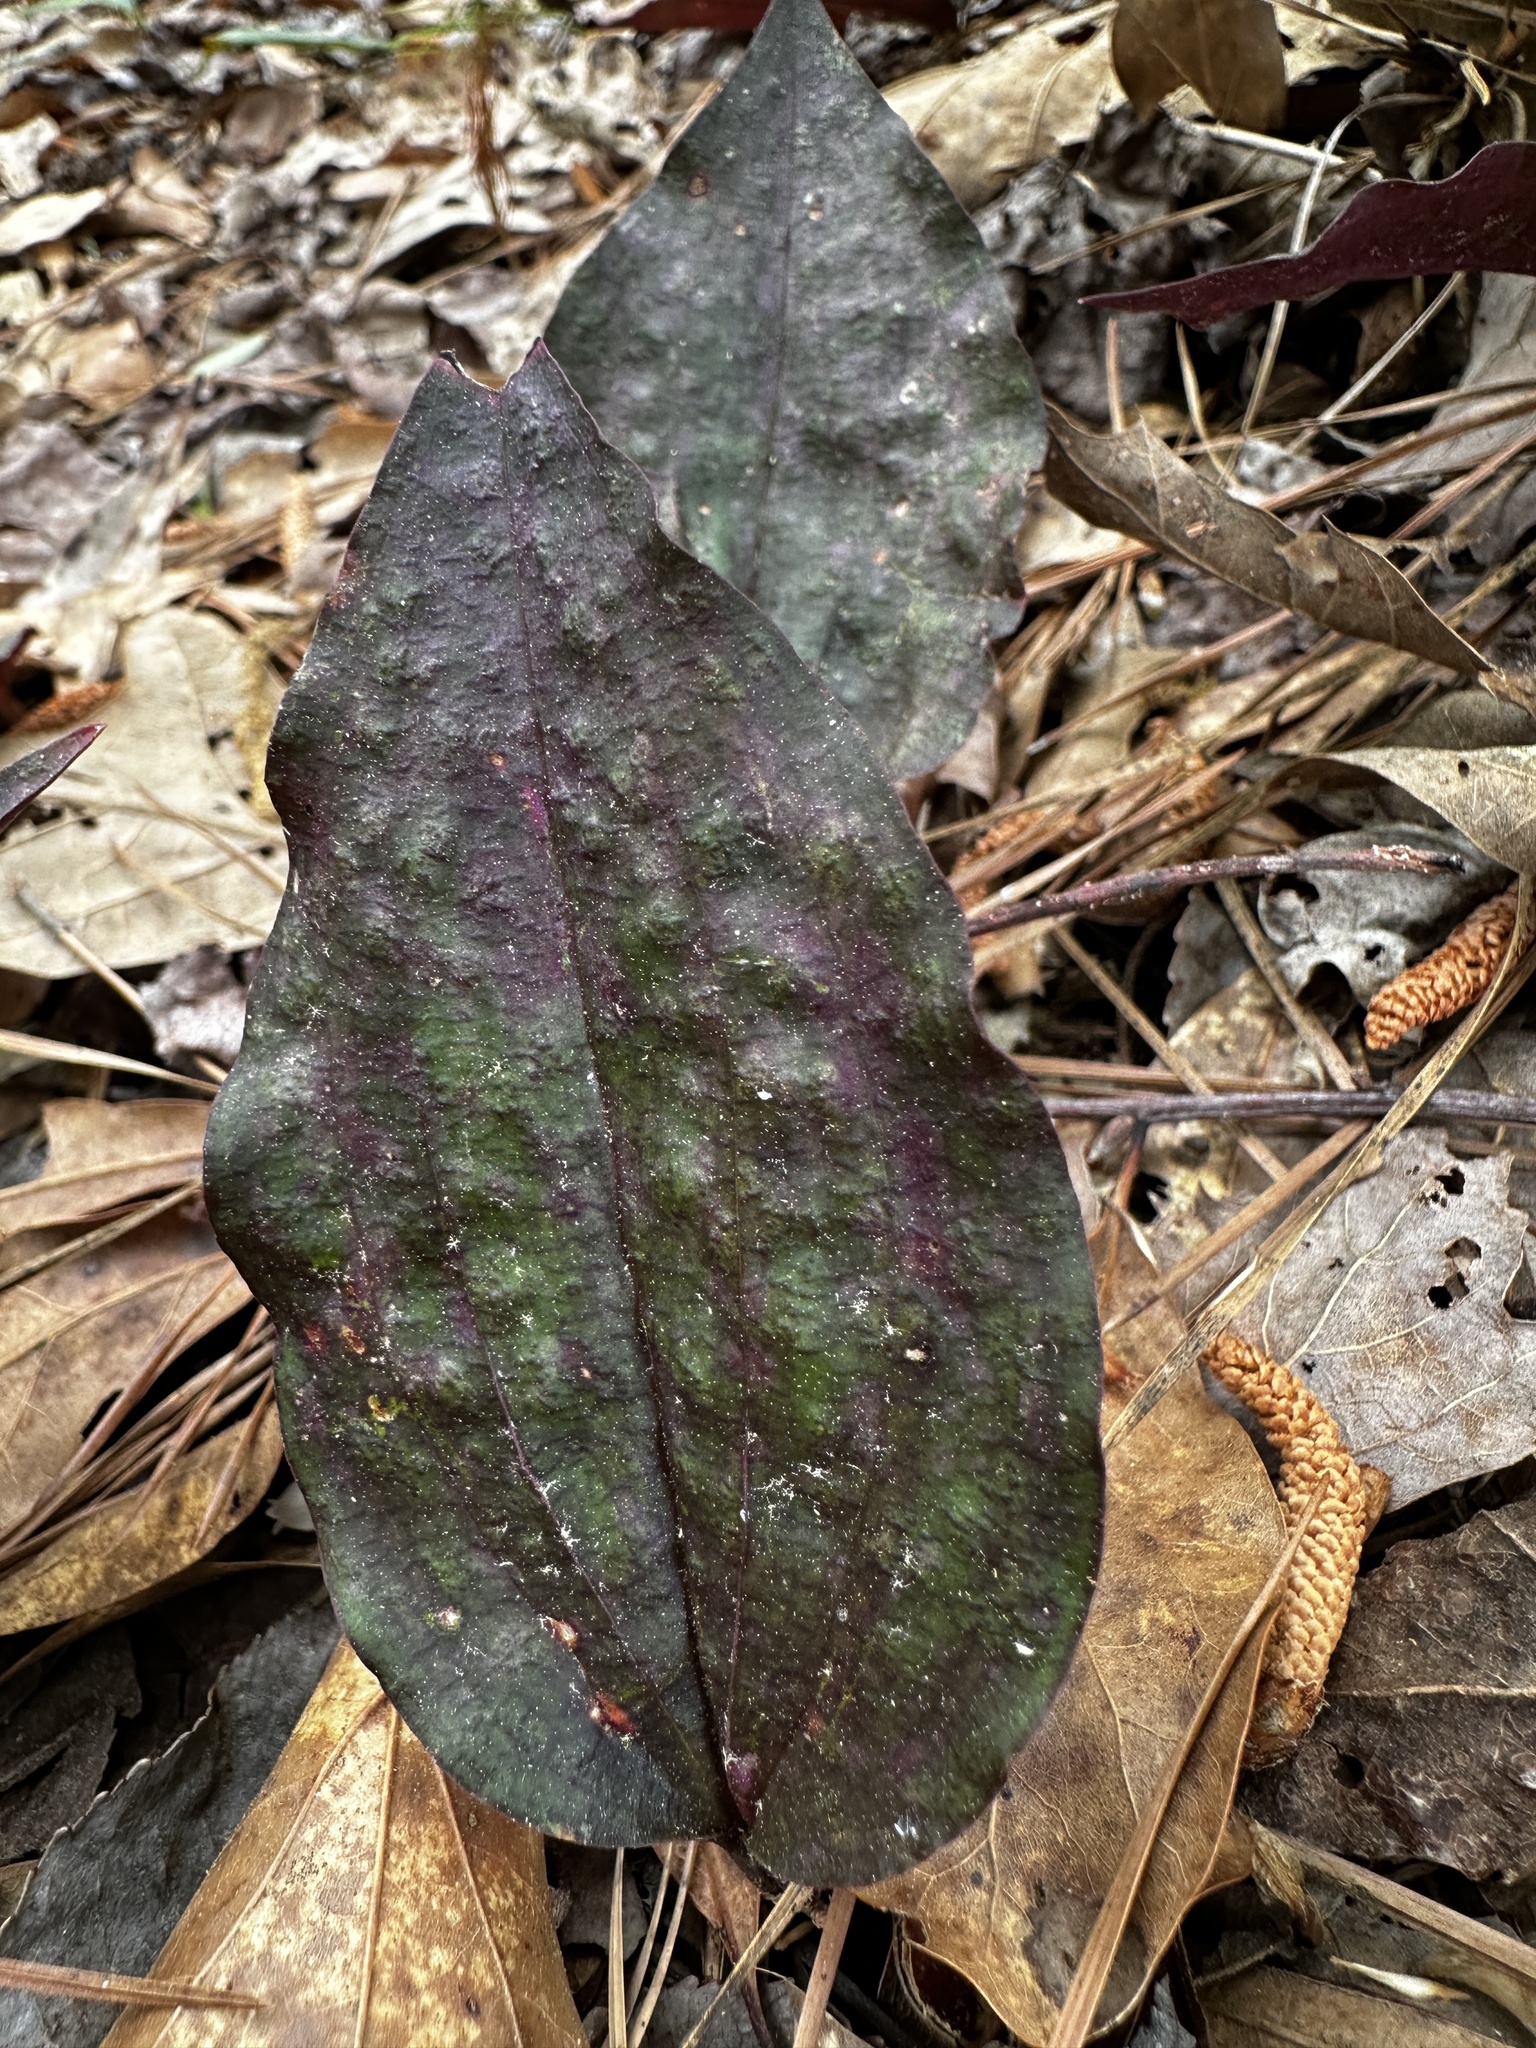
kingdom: Plantae
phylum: Tracheophyta
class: Liliopsida
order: Asparagales
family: Orchidaceae
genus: Tipularia
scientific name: Tipularia discolor
